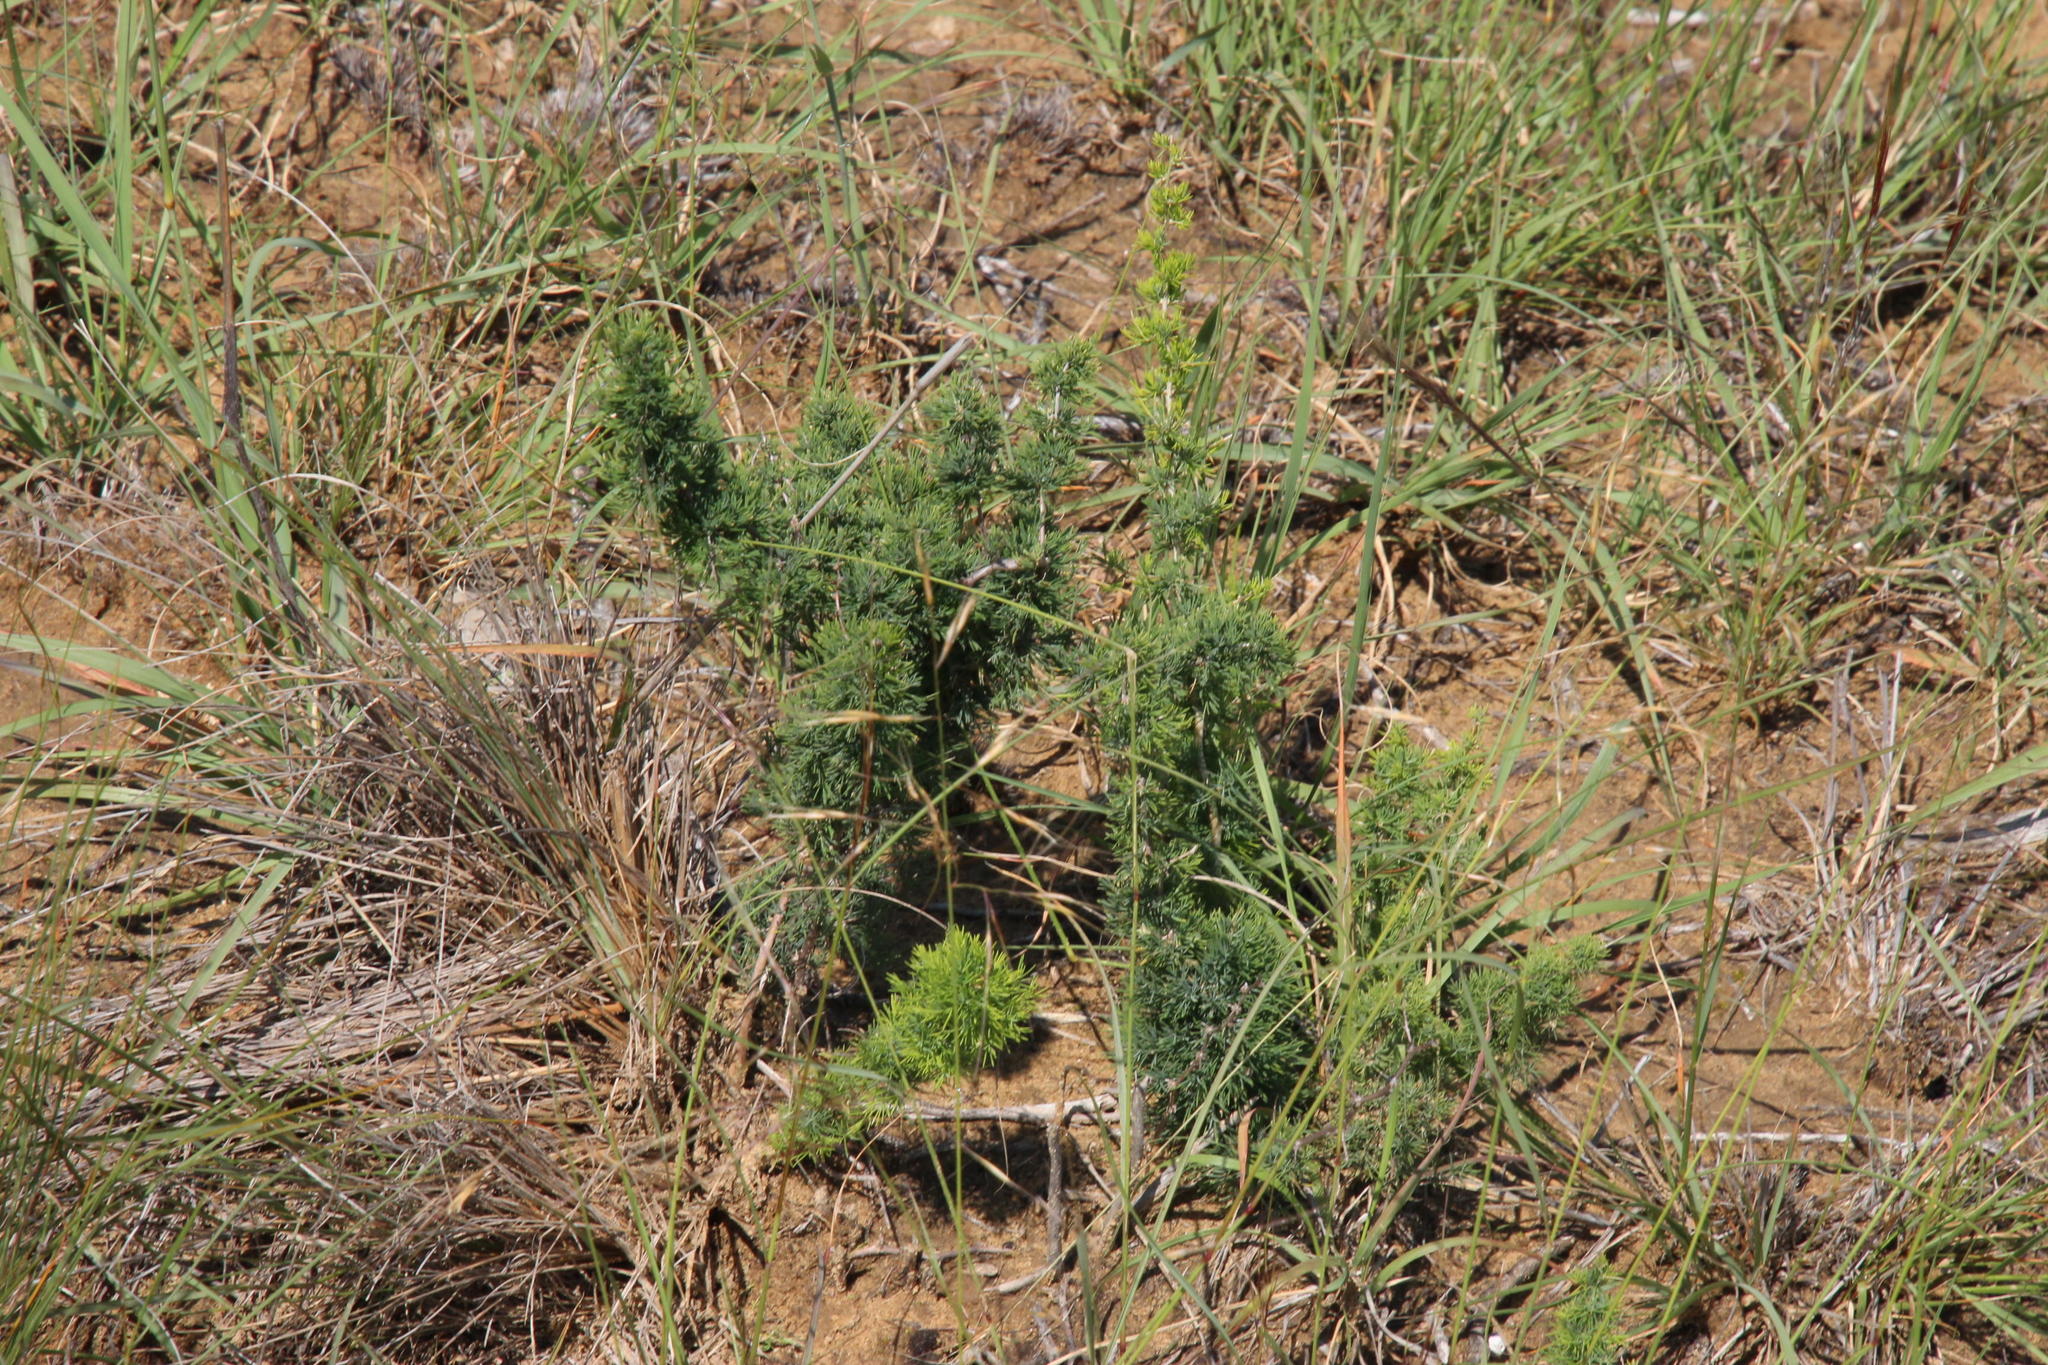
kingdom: Plantae
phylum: Tracheophyta
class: Liliopsida
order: Asparagales
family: Asparagaceae
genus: Asparagus
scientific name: Asparagus suaveolens
